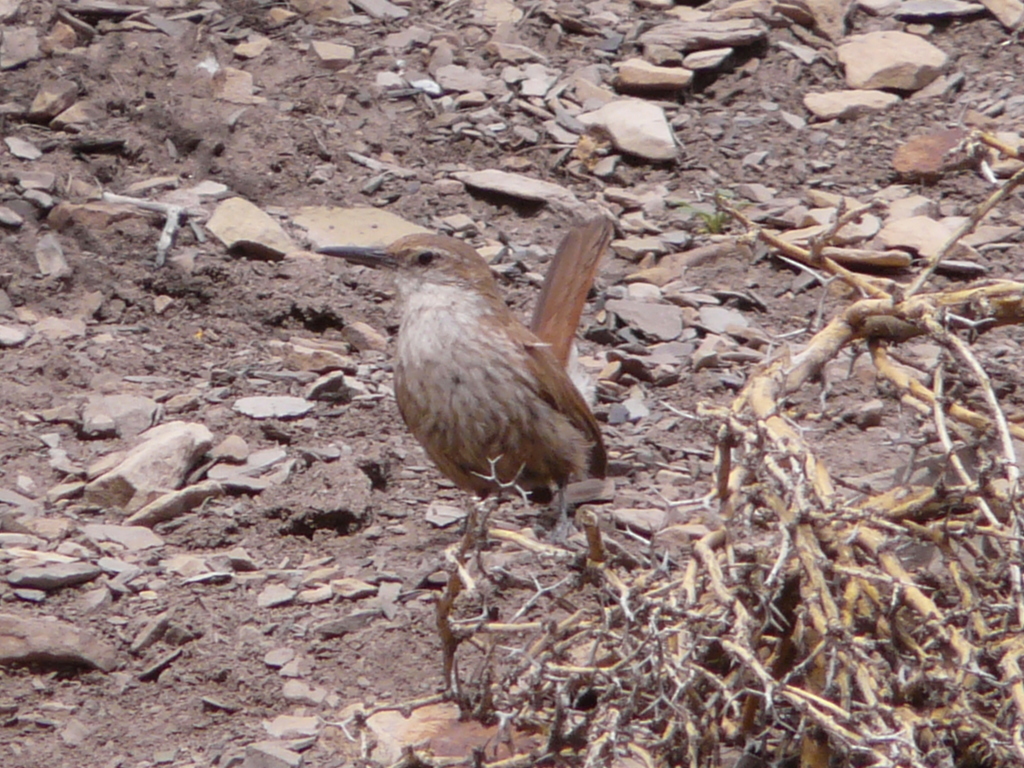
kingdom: Animalia
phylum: Chordata
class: Aves
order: Passeriformes
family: Furnariidae
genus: Upucerthia
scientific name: Upucerthia ruficaudus
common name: Straight-billed earthcreeper
